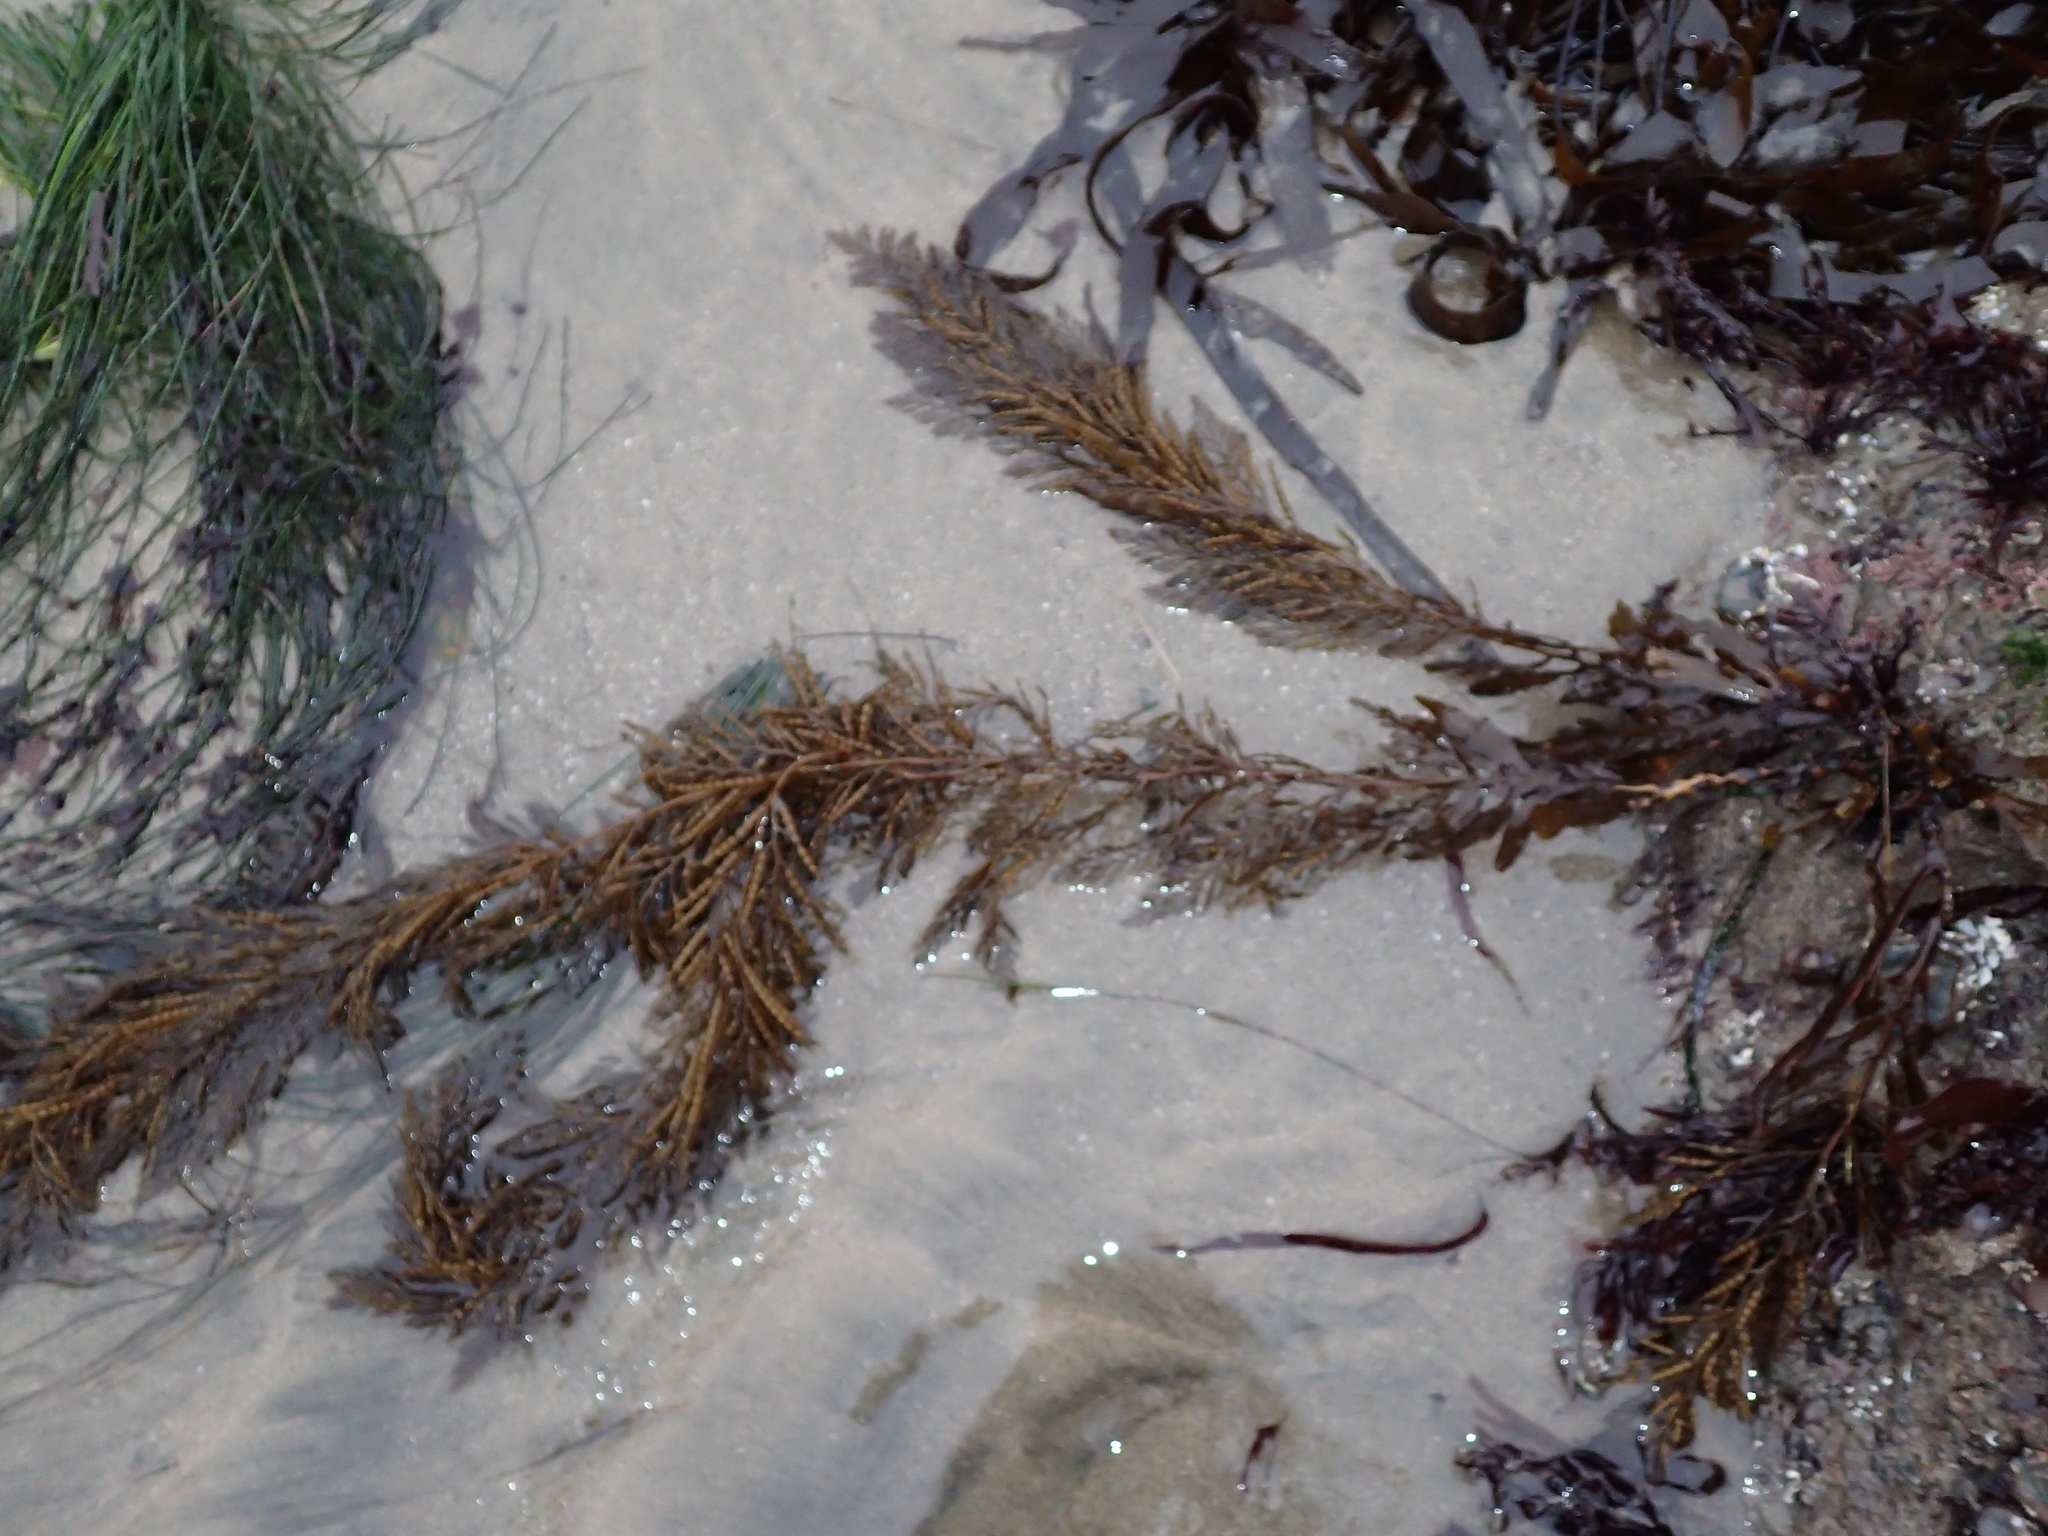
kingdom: Chromista
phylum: Ochrophyta
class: Phaeophyceae
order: Fucales
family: Sargassaceae
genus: Stephanocystis
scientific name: Stephanocystis
